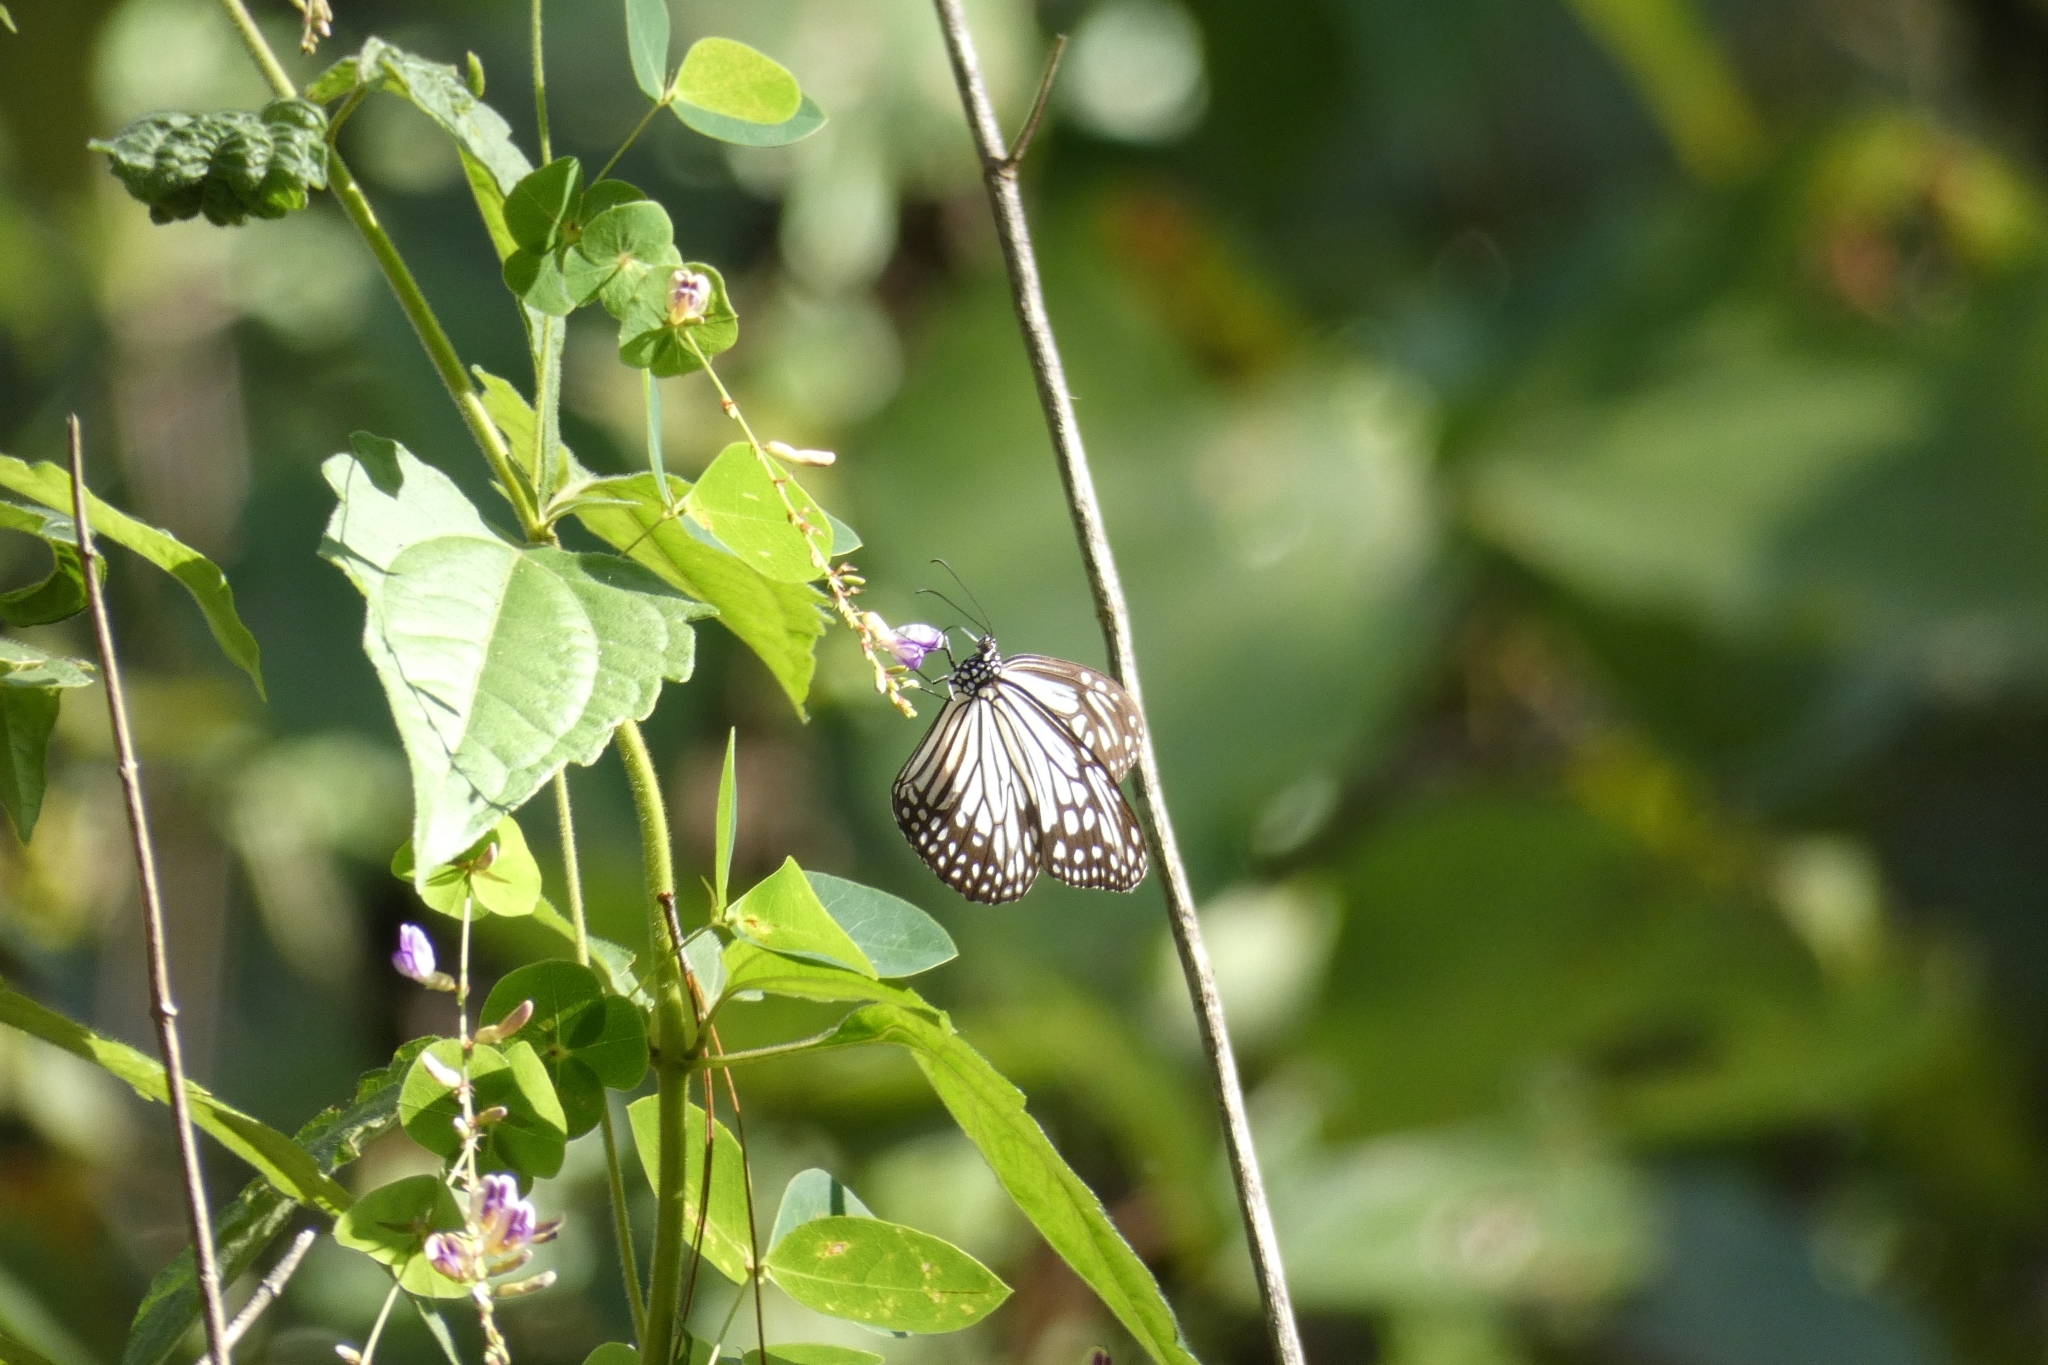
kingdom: Animalia
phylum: Arthropoda
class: Insecta
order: Lepidoptera
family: Nymphalidae
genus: Parantica
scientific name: Parantica aglea
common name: Glassy tiger
